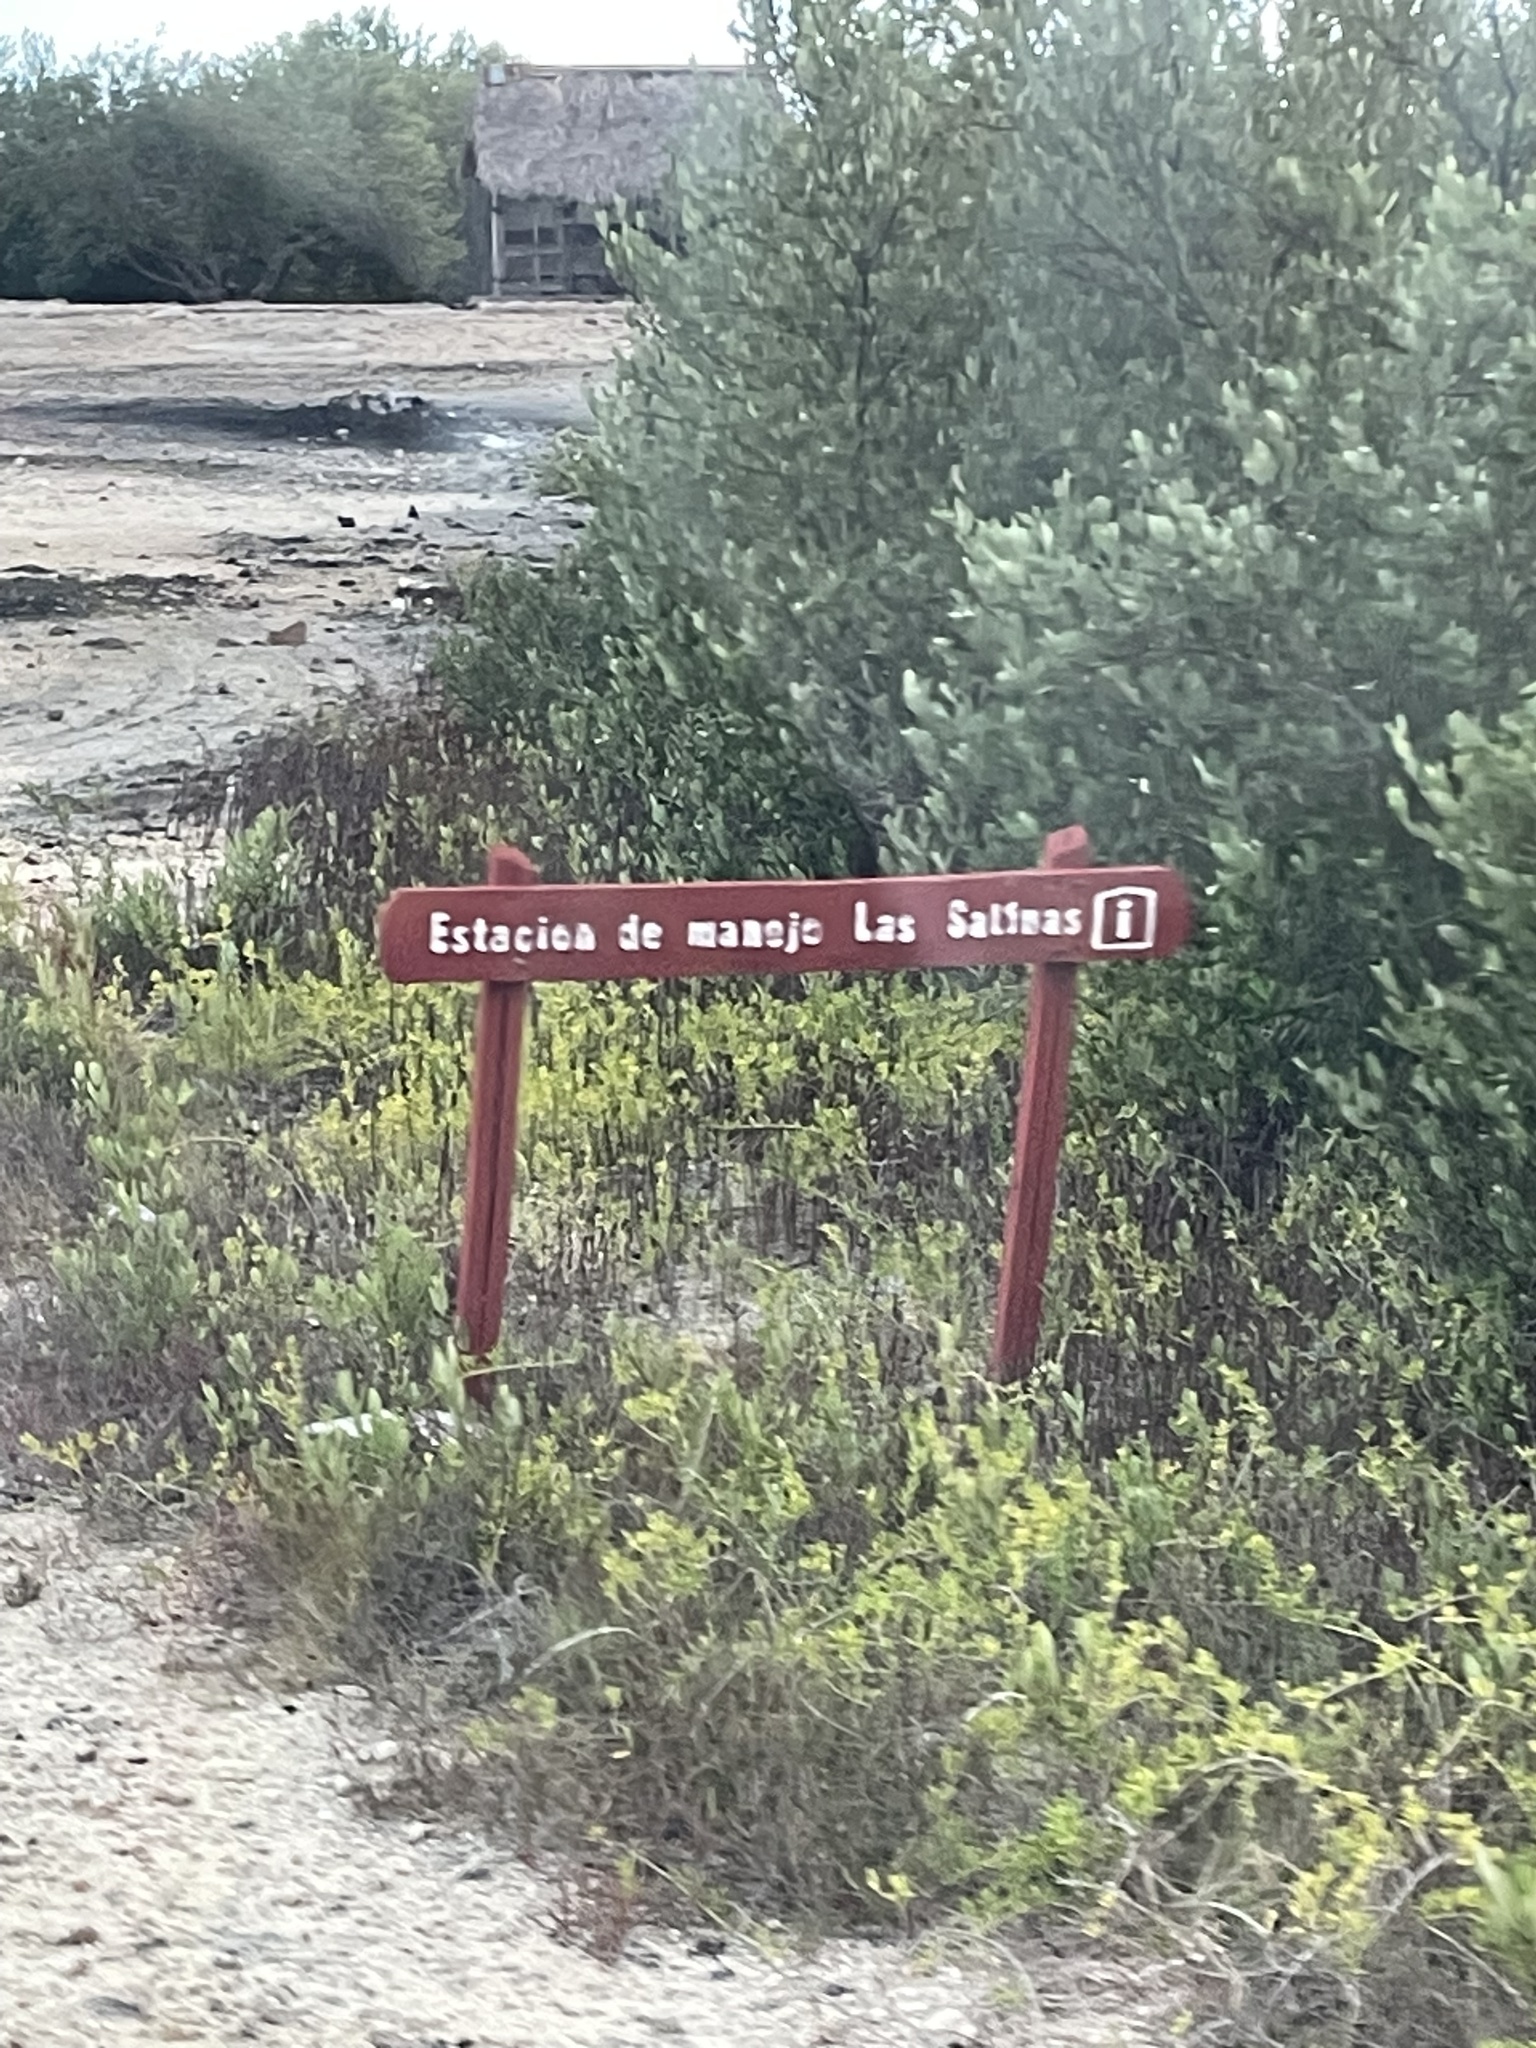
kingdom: Plantae
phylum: Tracheophyta
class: Magnoliopsida
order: Malpighiales
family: Rhizophoraceae
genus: Rhizophora
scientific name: Rhizophora mangle
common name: Red mangrove
